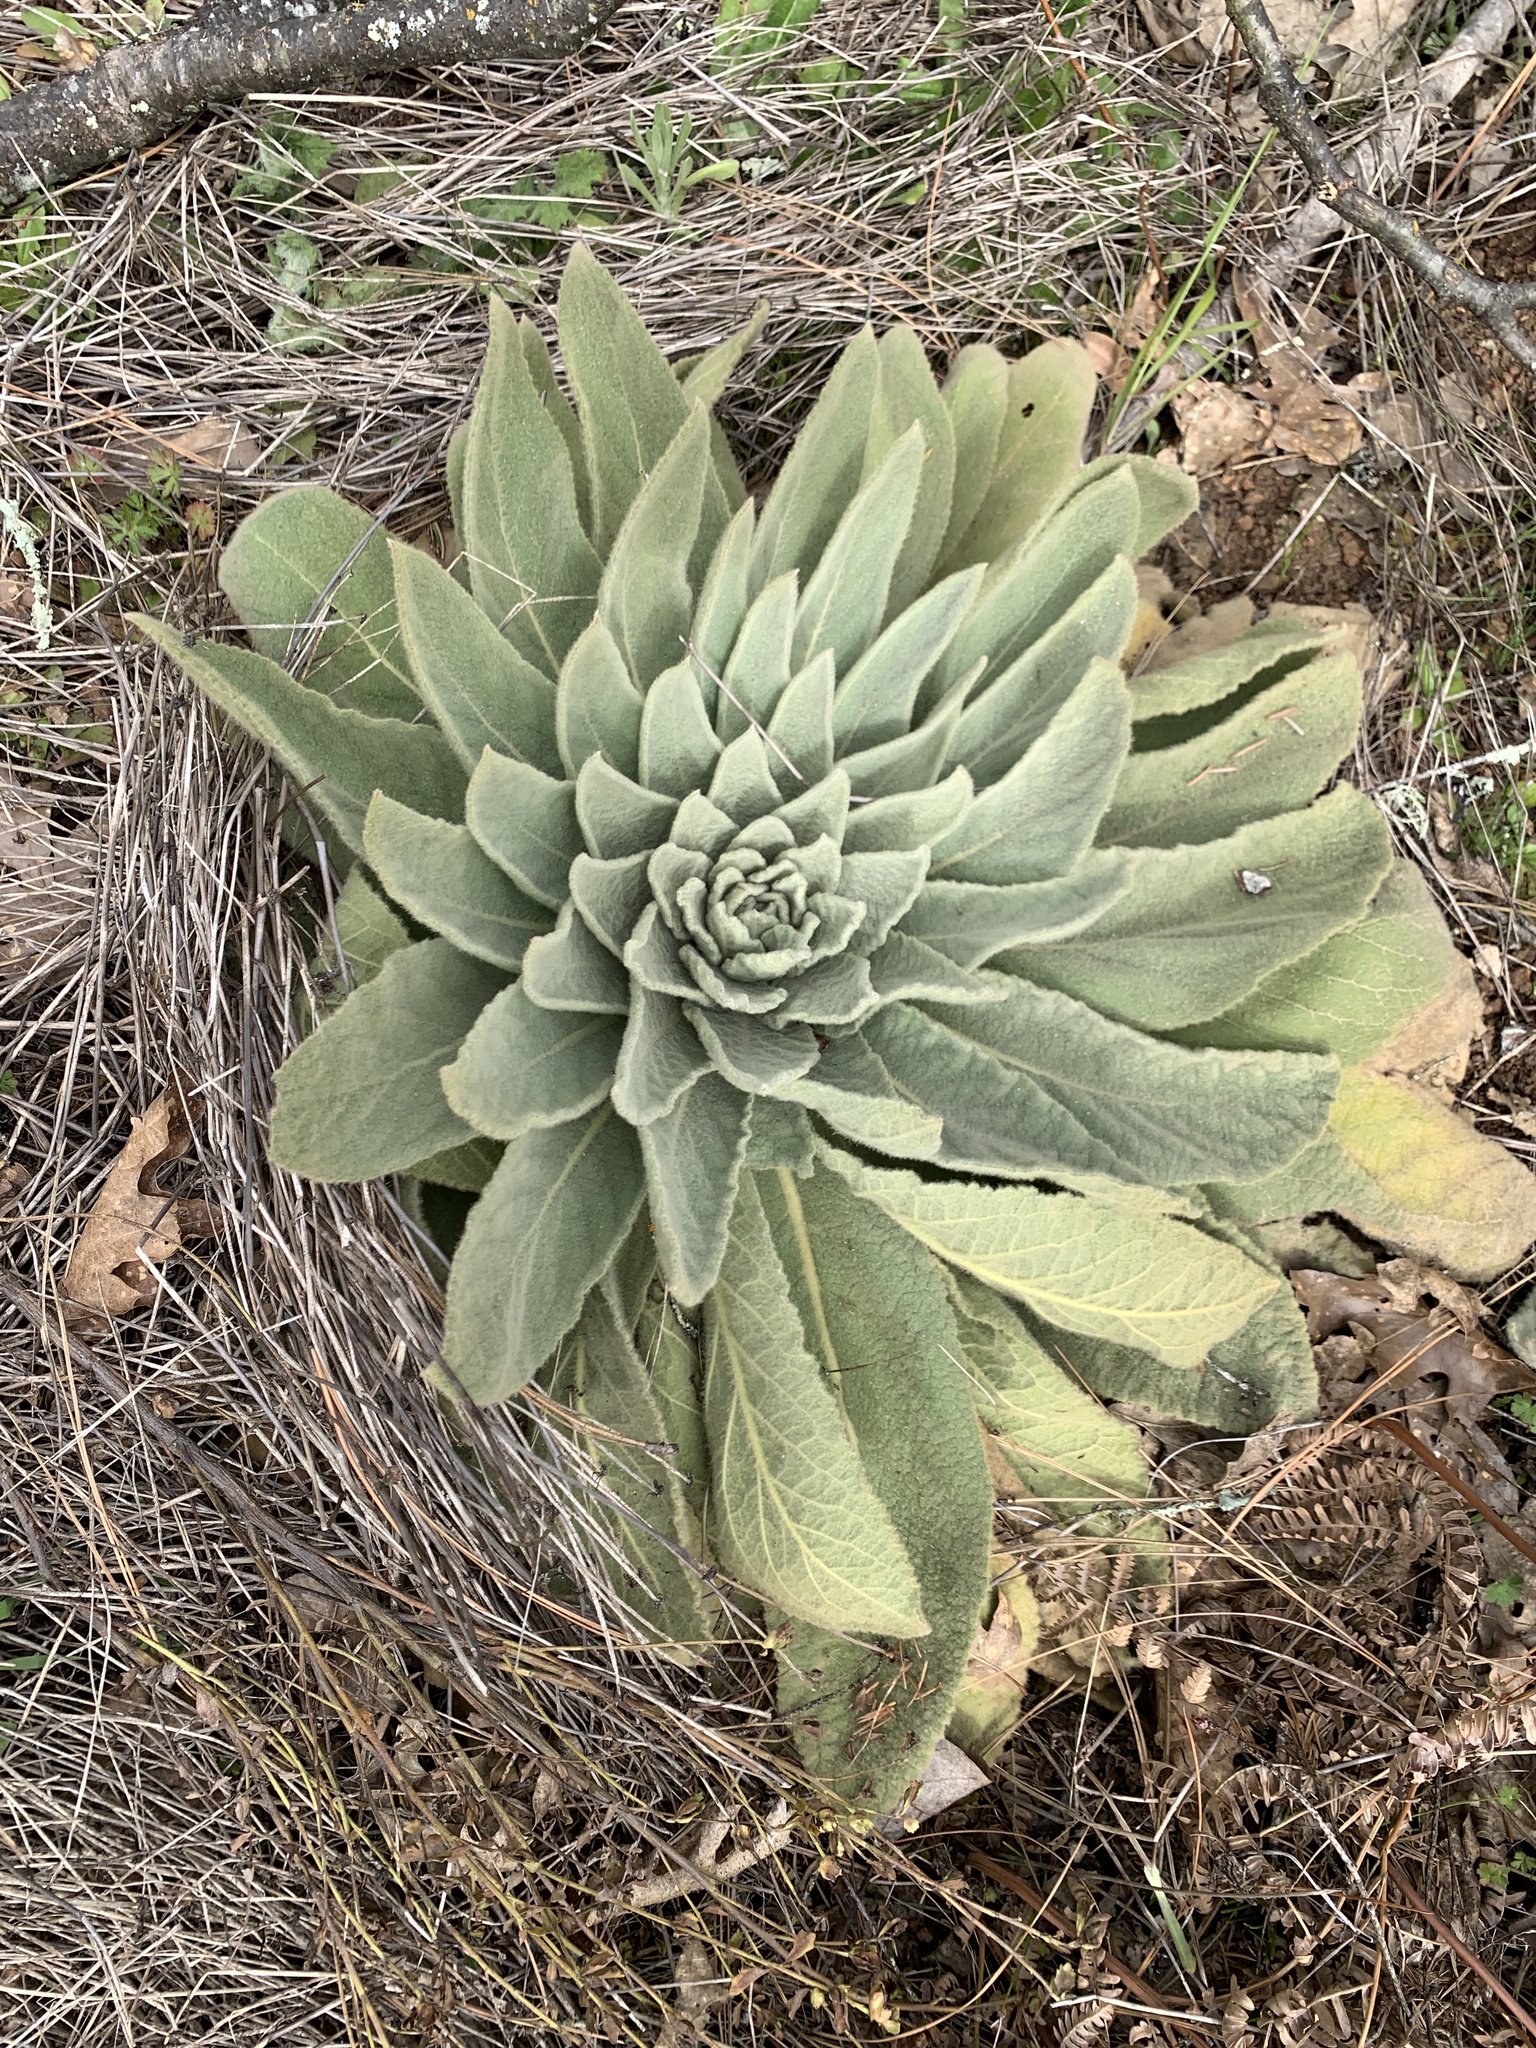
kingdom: Plantae
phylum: Tracheophyta
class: Magnoliopsida
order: Lamiales
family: Scrophulariaceae
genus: Verbascum
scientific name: Verbascum thapsus
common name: Common mullein
